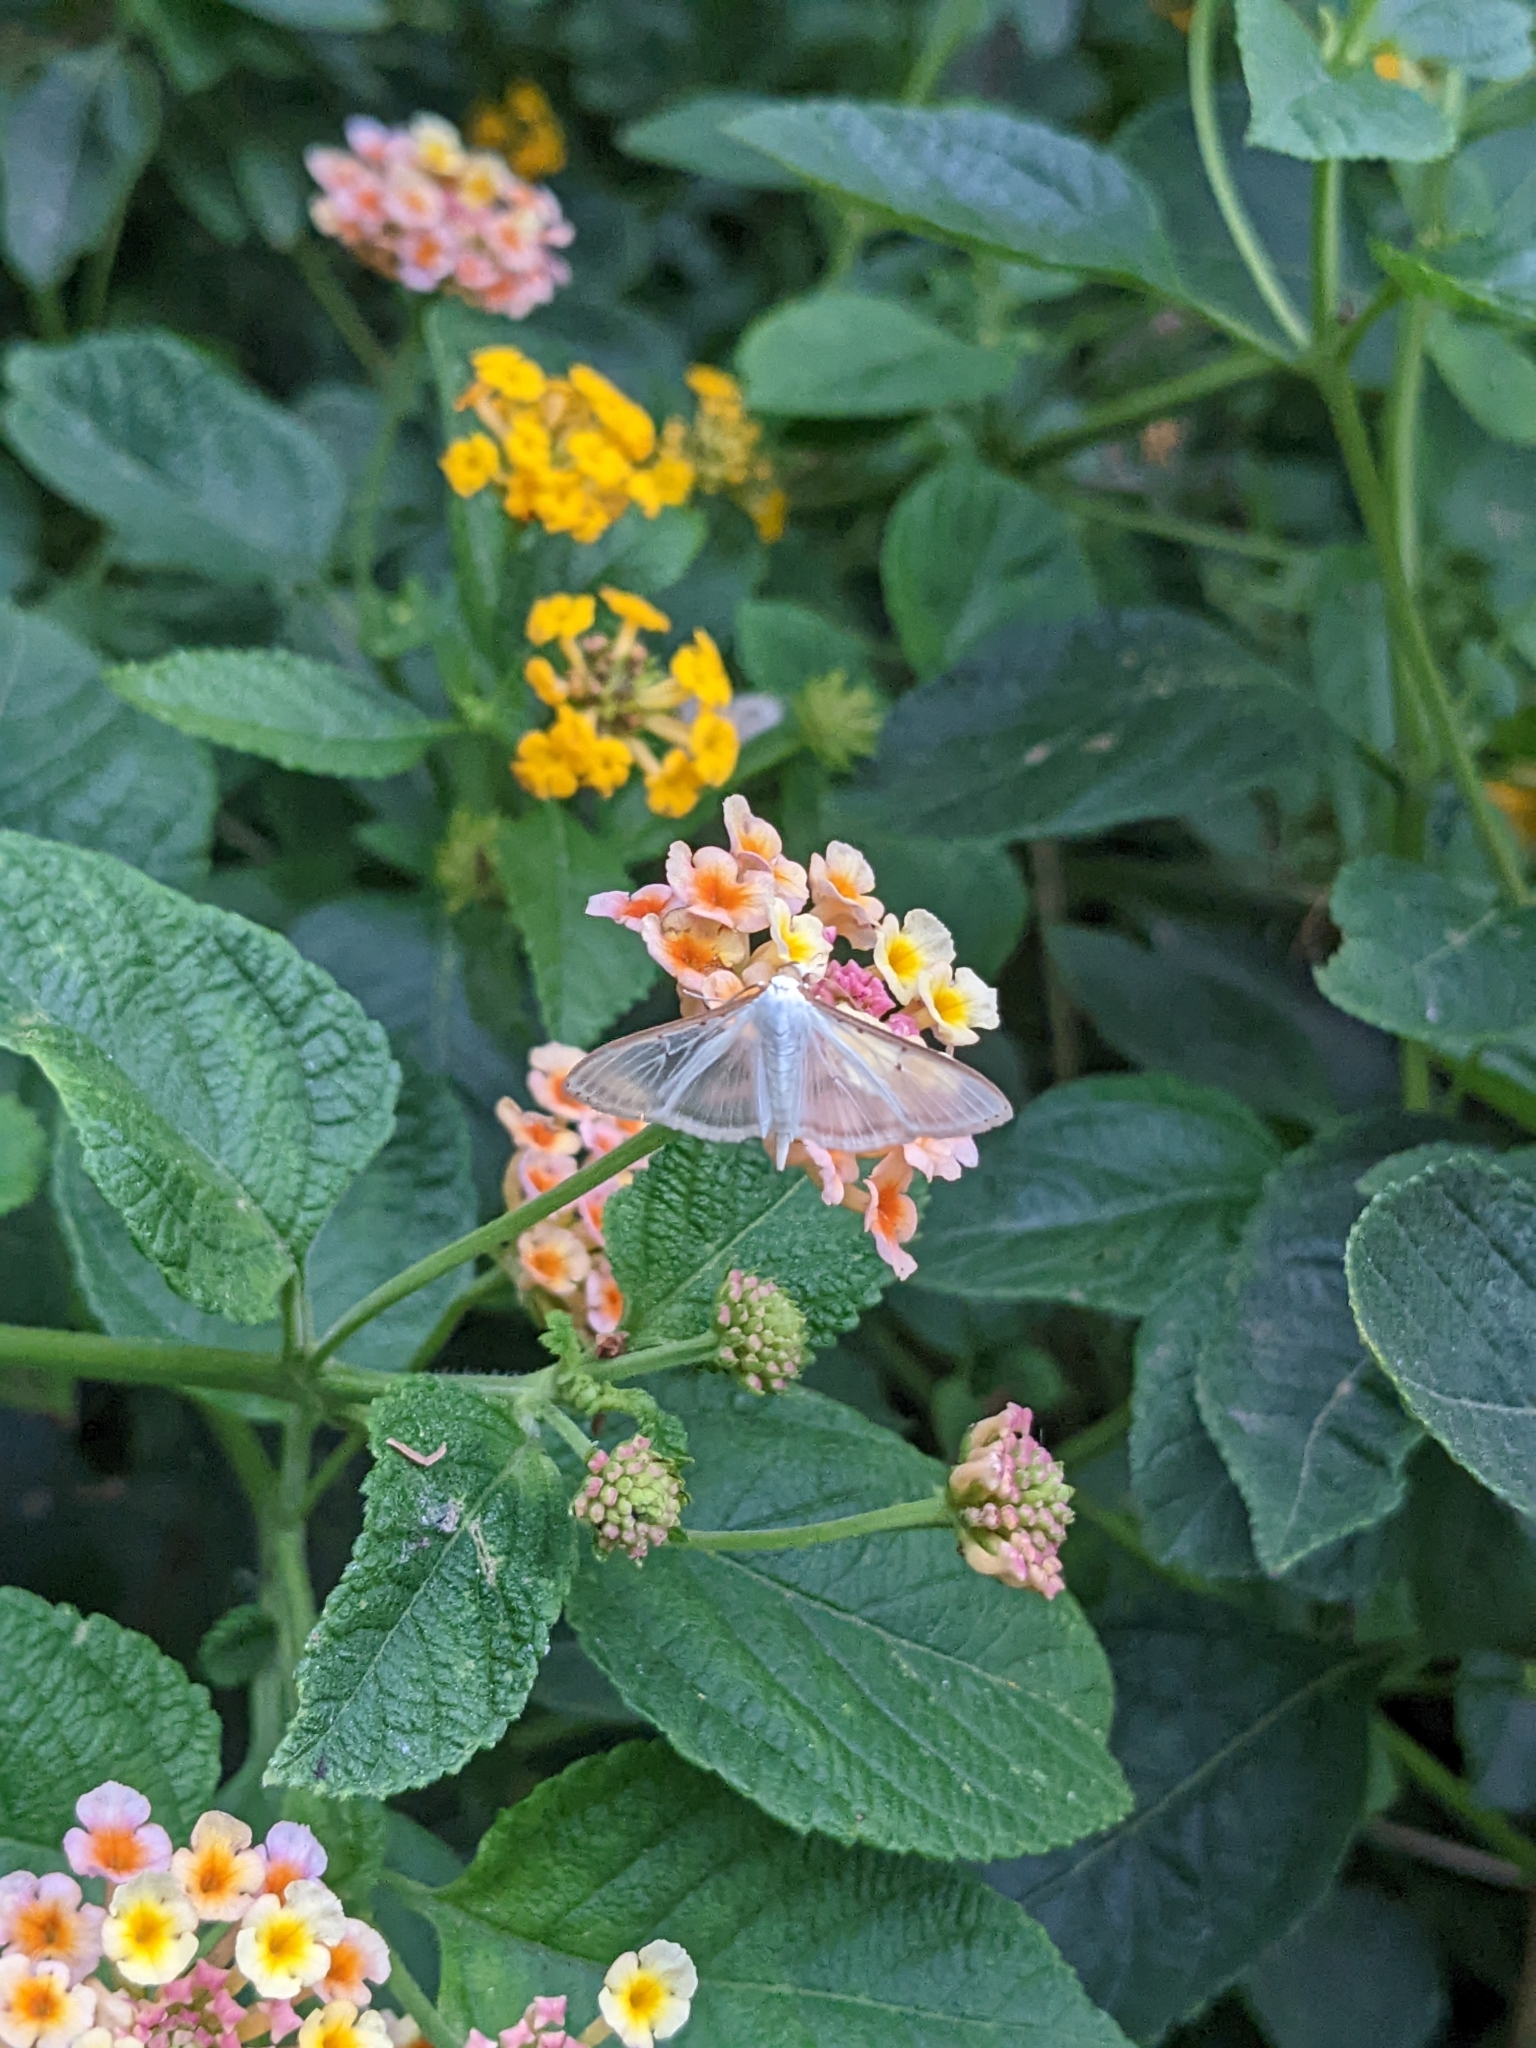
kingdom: Animalia
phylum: Arthropoda
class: Insecta
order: Lepidoptera
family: Crambidae
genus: Palpita
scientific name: Palpita quadristigmalis
